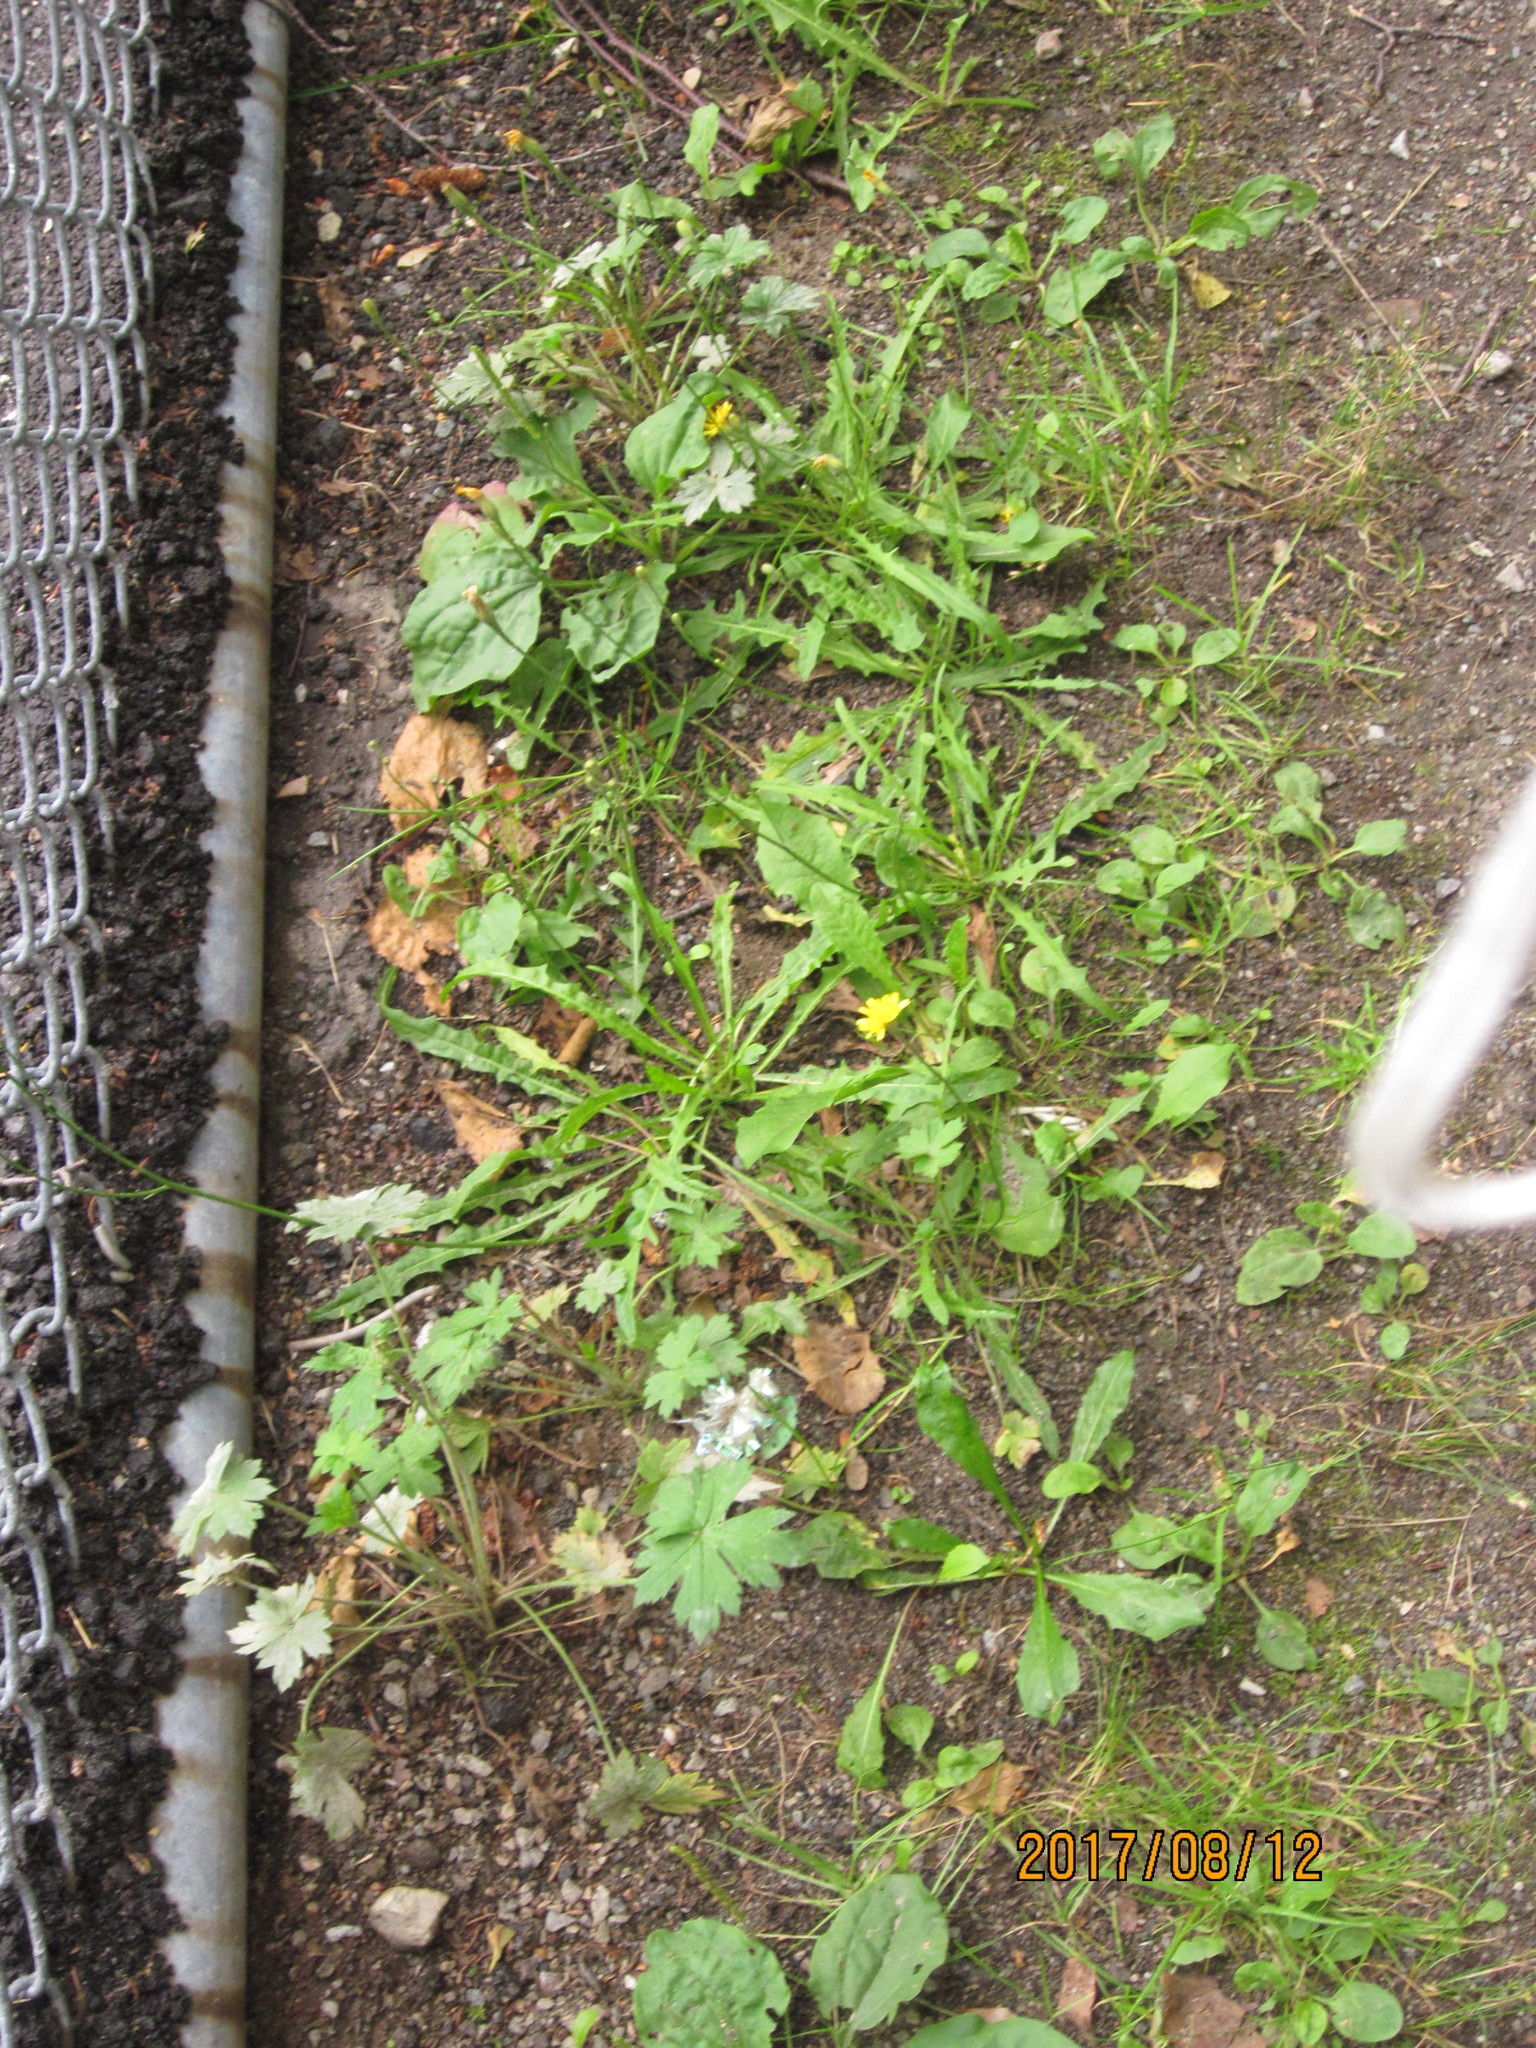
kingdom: Plantae
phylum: Tracheophyta
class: Magnoliopsida
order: Ranunculales
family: Ranunculaceae
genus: Ranunculus
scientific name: Ranunculus acris
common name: Meadow buttercup
